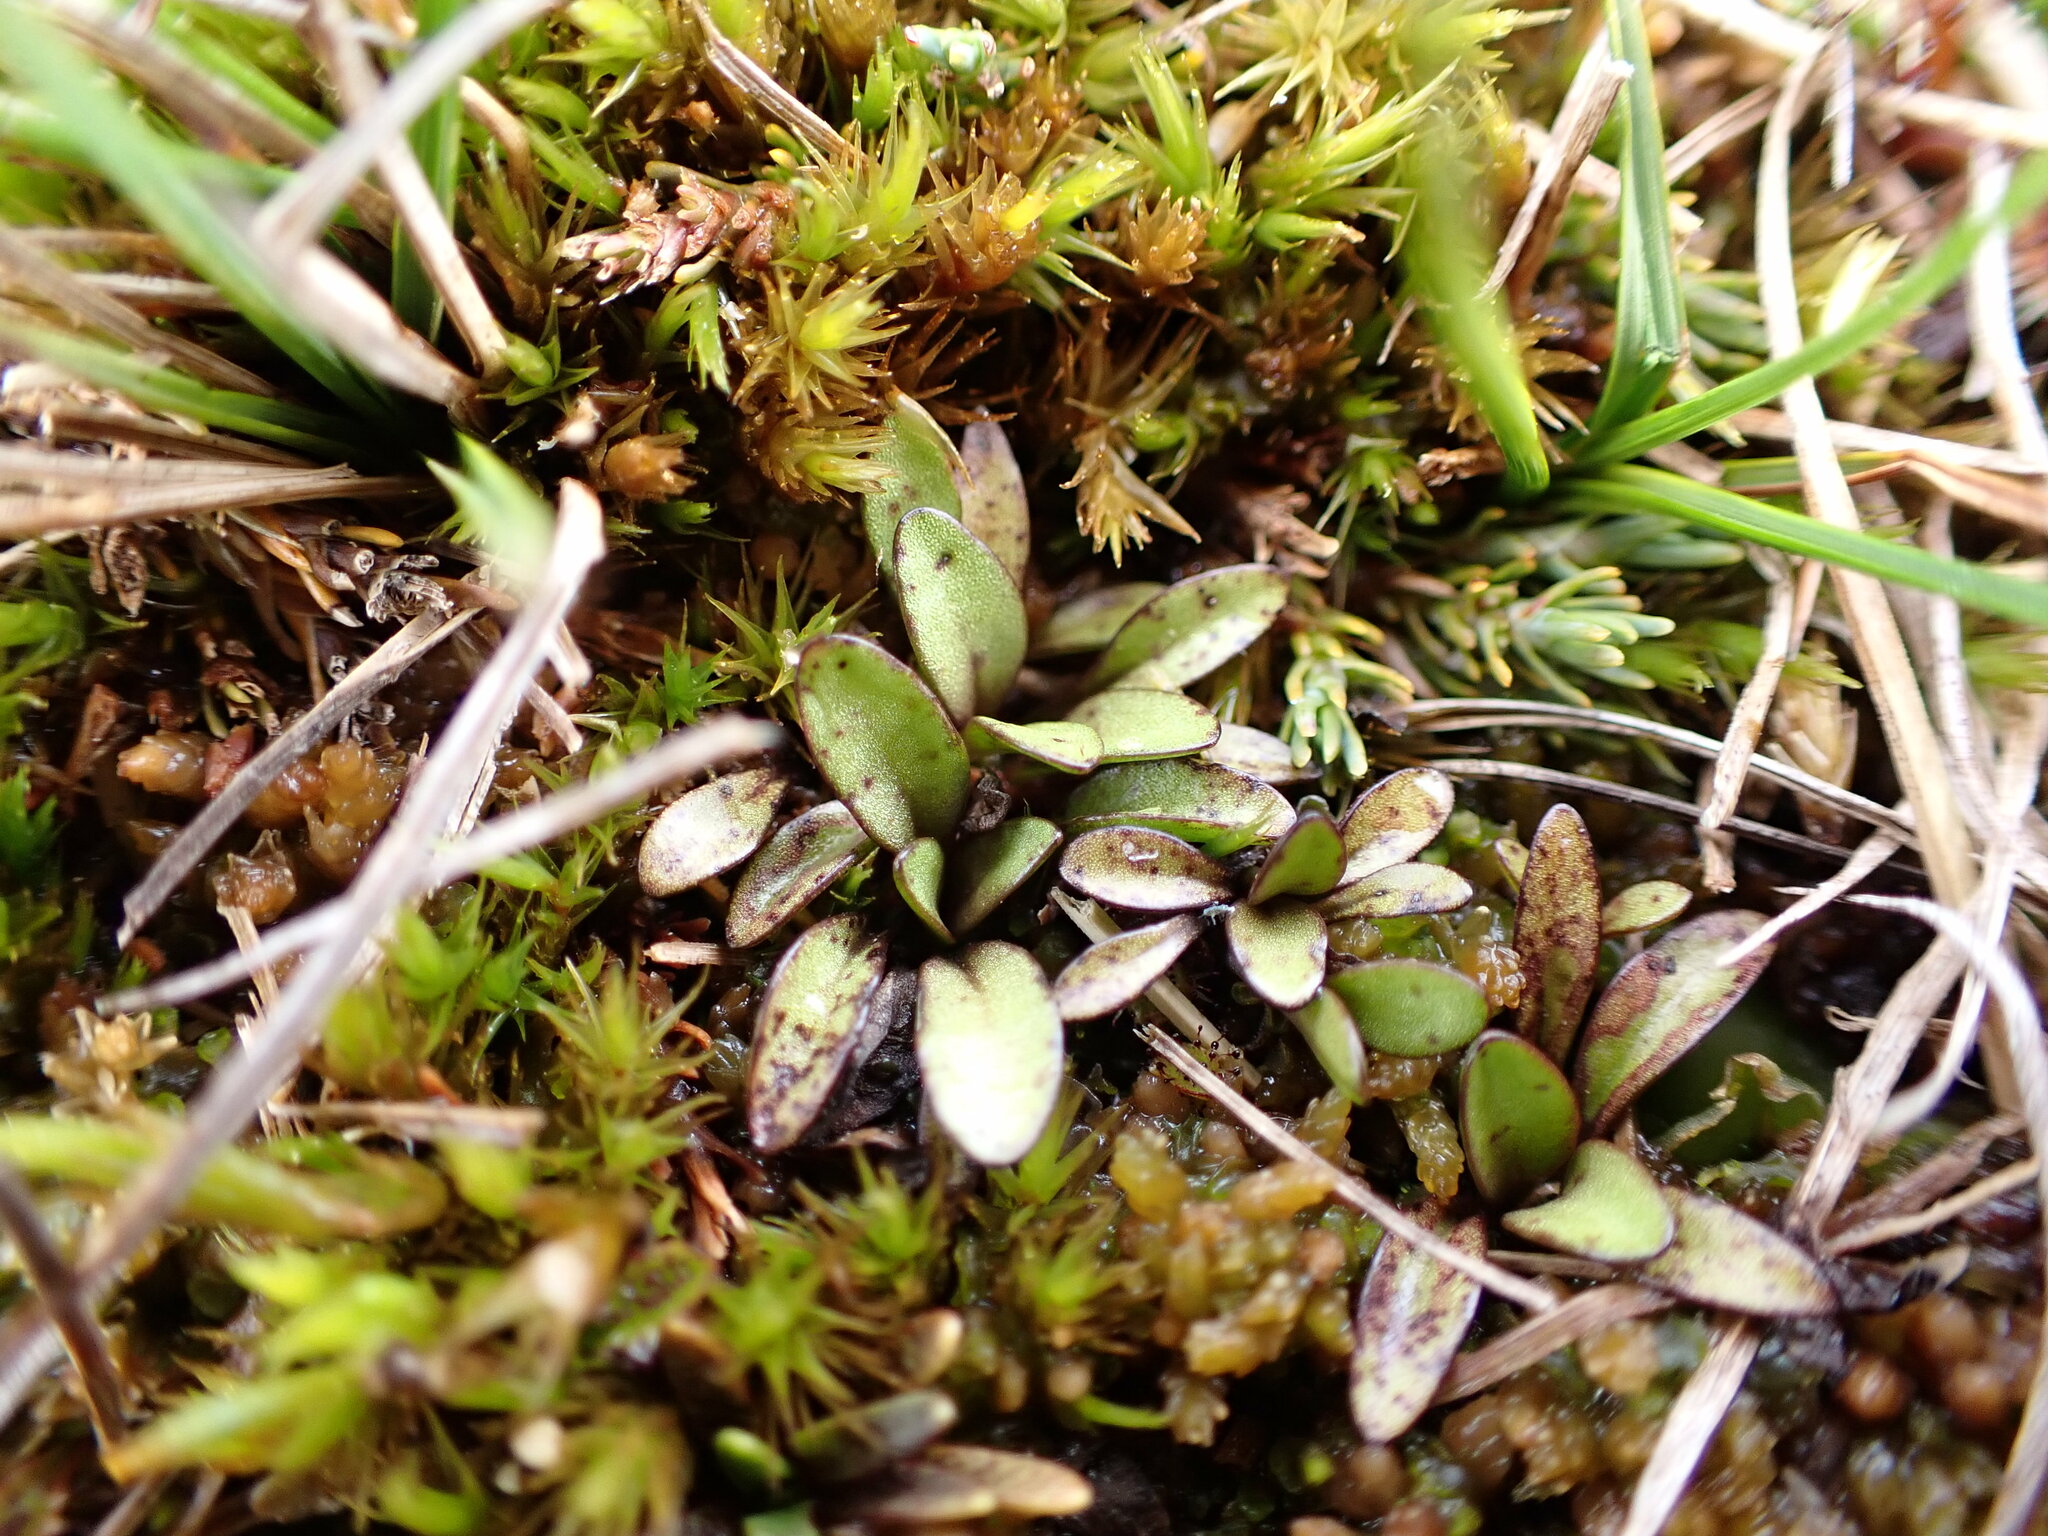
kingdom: Plantae
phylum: Tracheophyta
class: Magnoliopsida
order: Gentianales
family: Gentianaceae
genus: Gentianella
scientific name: Gentianella amabilis
